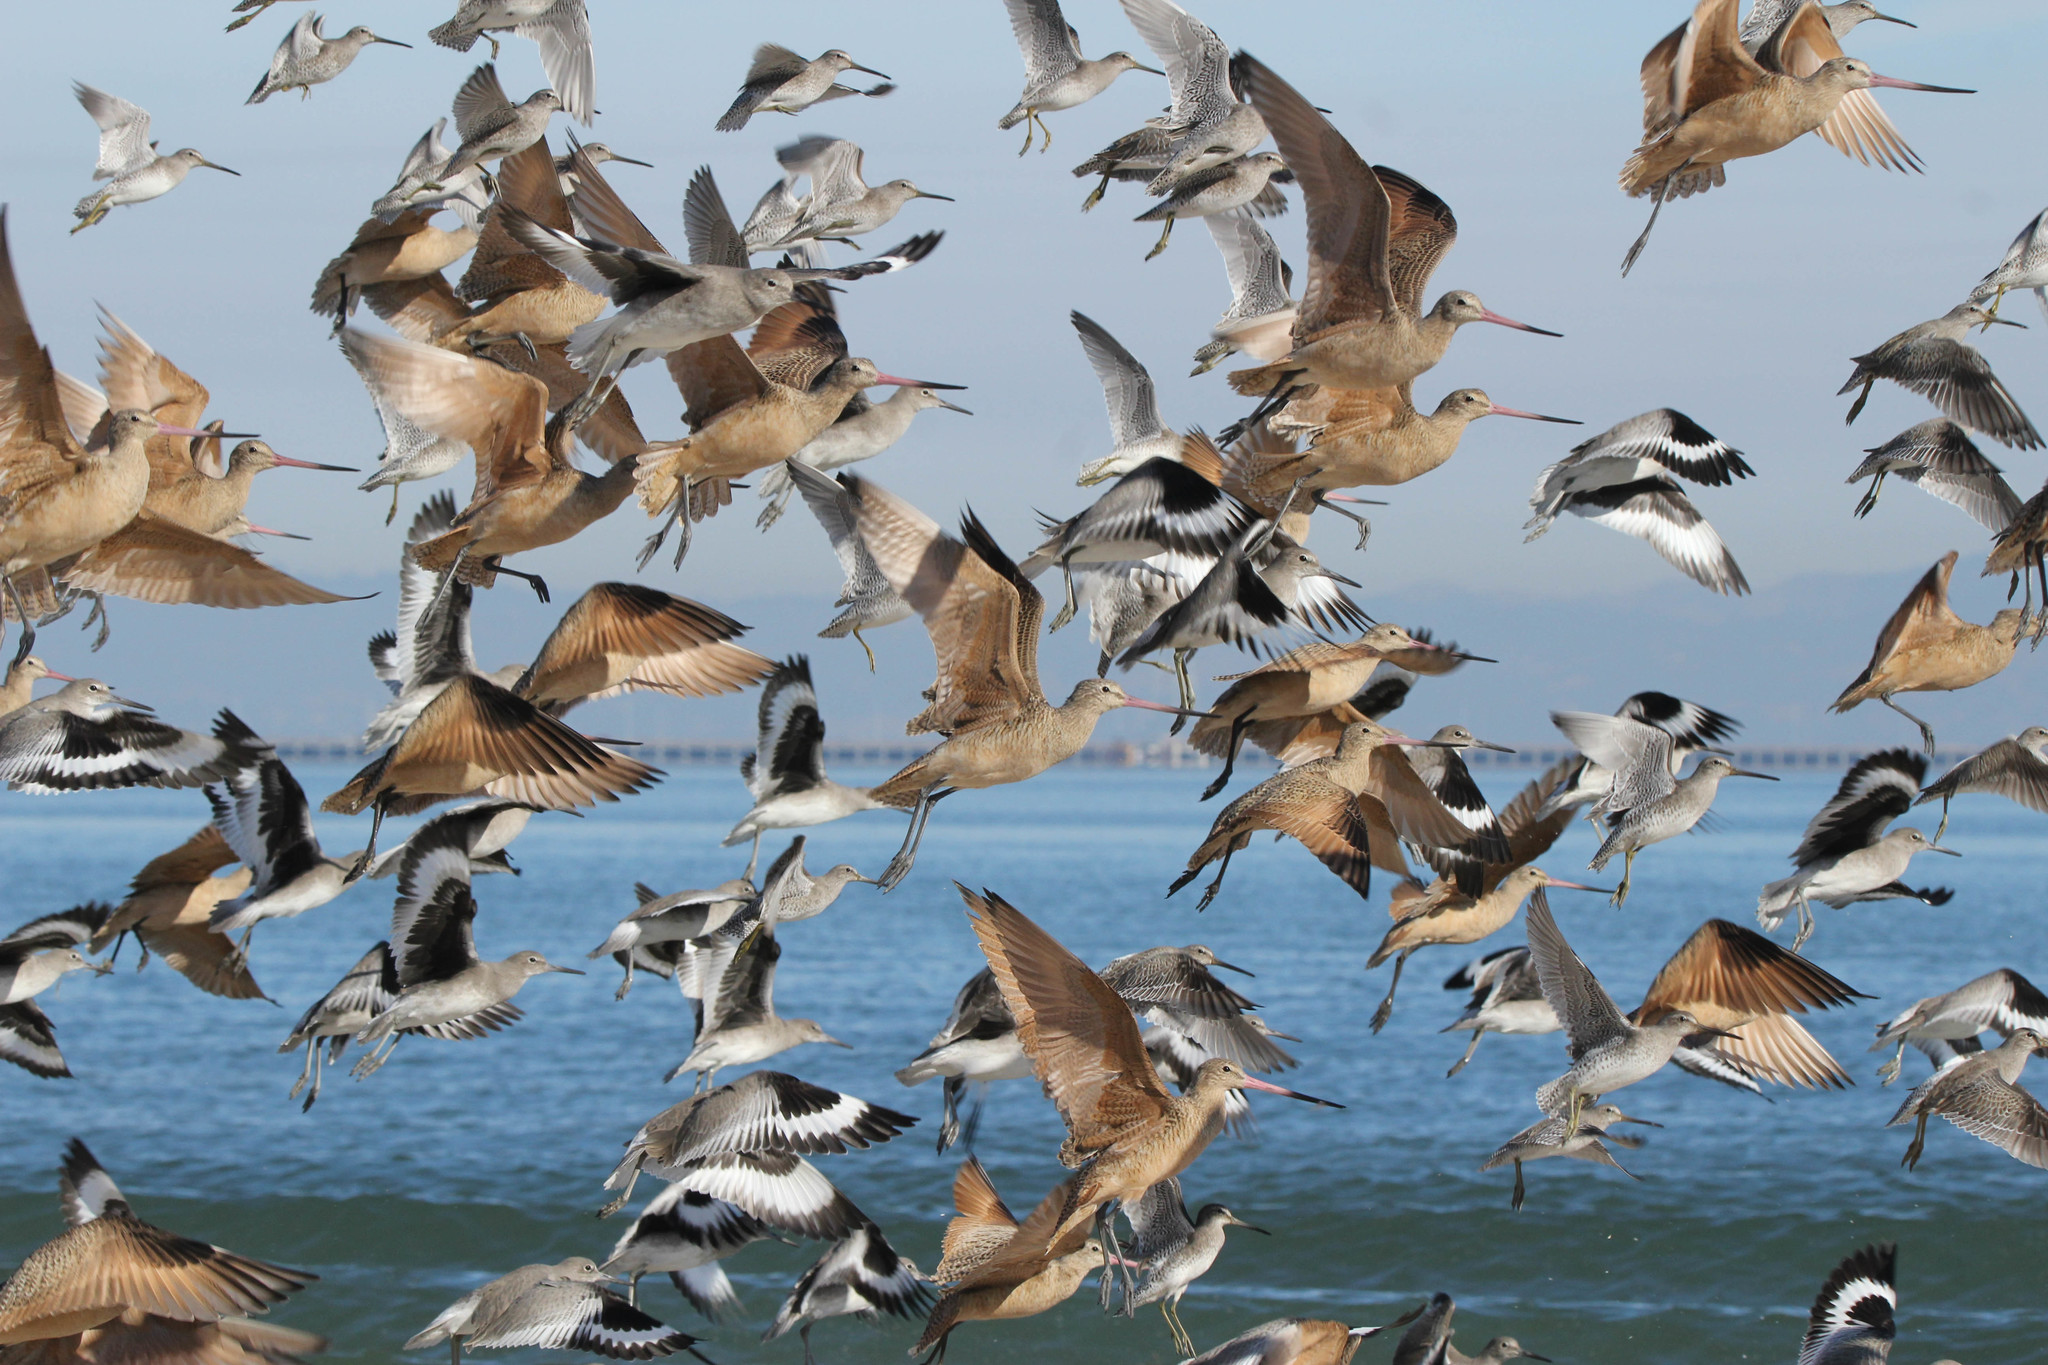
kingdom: Animalia
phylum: Chordata
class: Aves
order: Charadriiformes
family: Scolopacidae
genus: Limosa
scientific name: Limosa fedoa
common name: Marbled godwit
